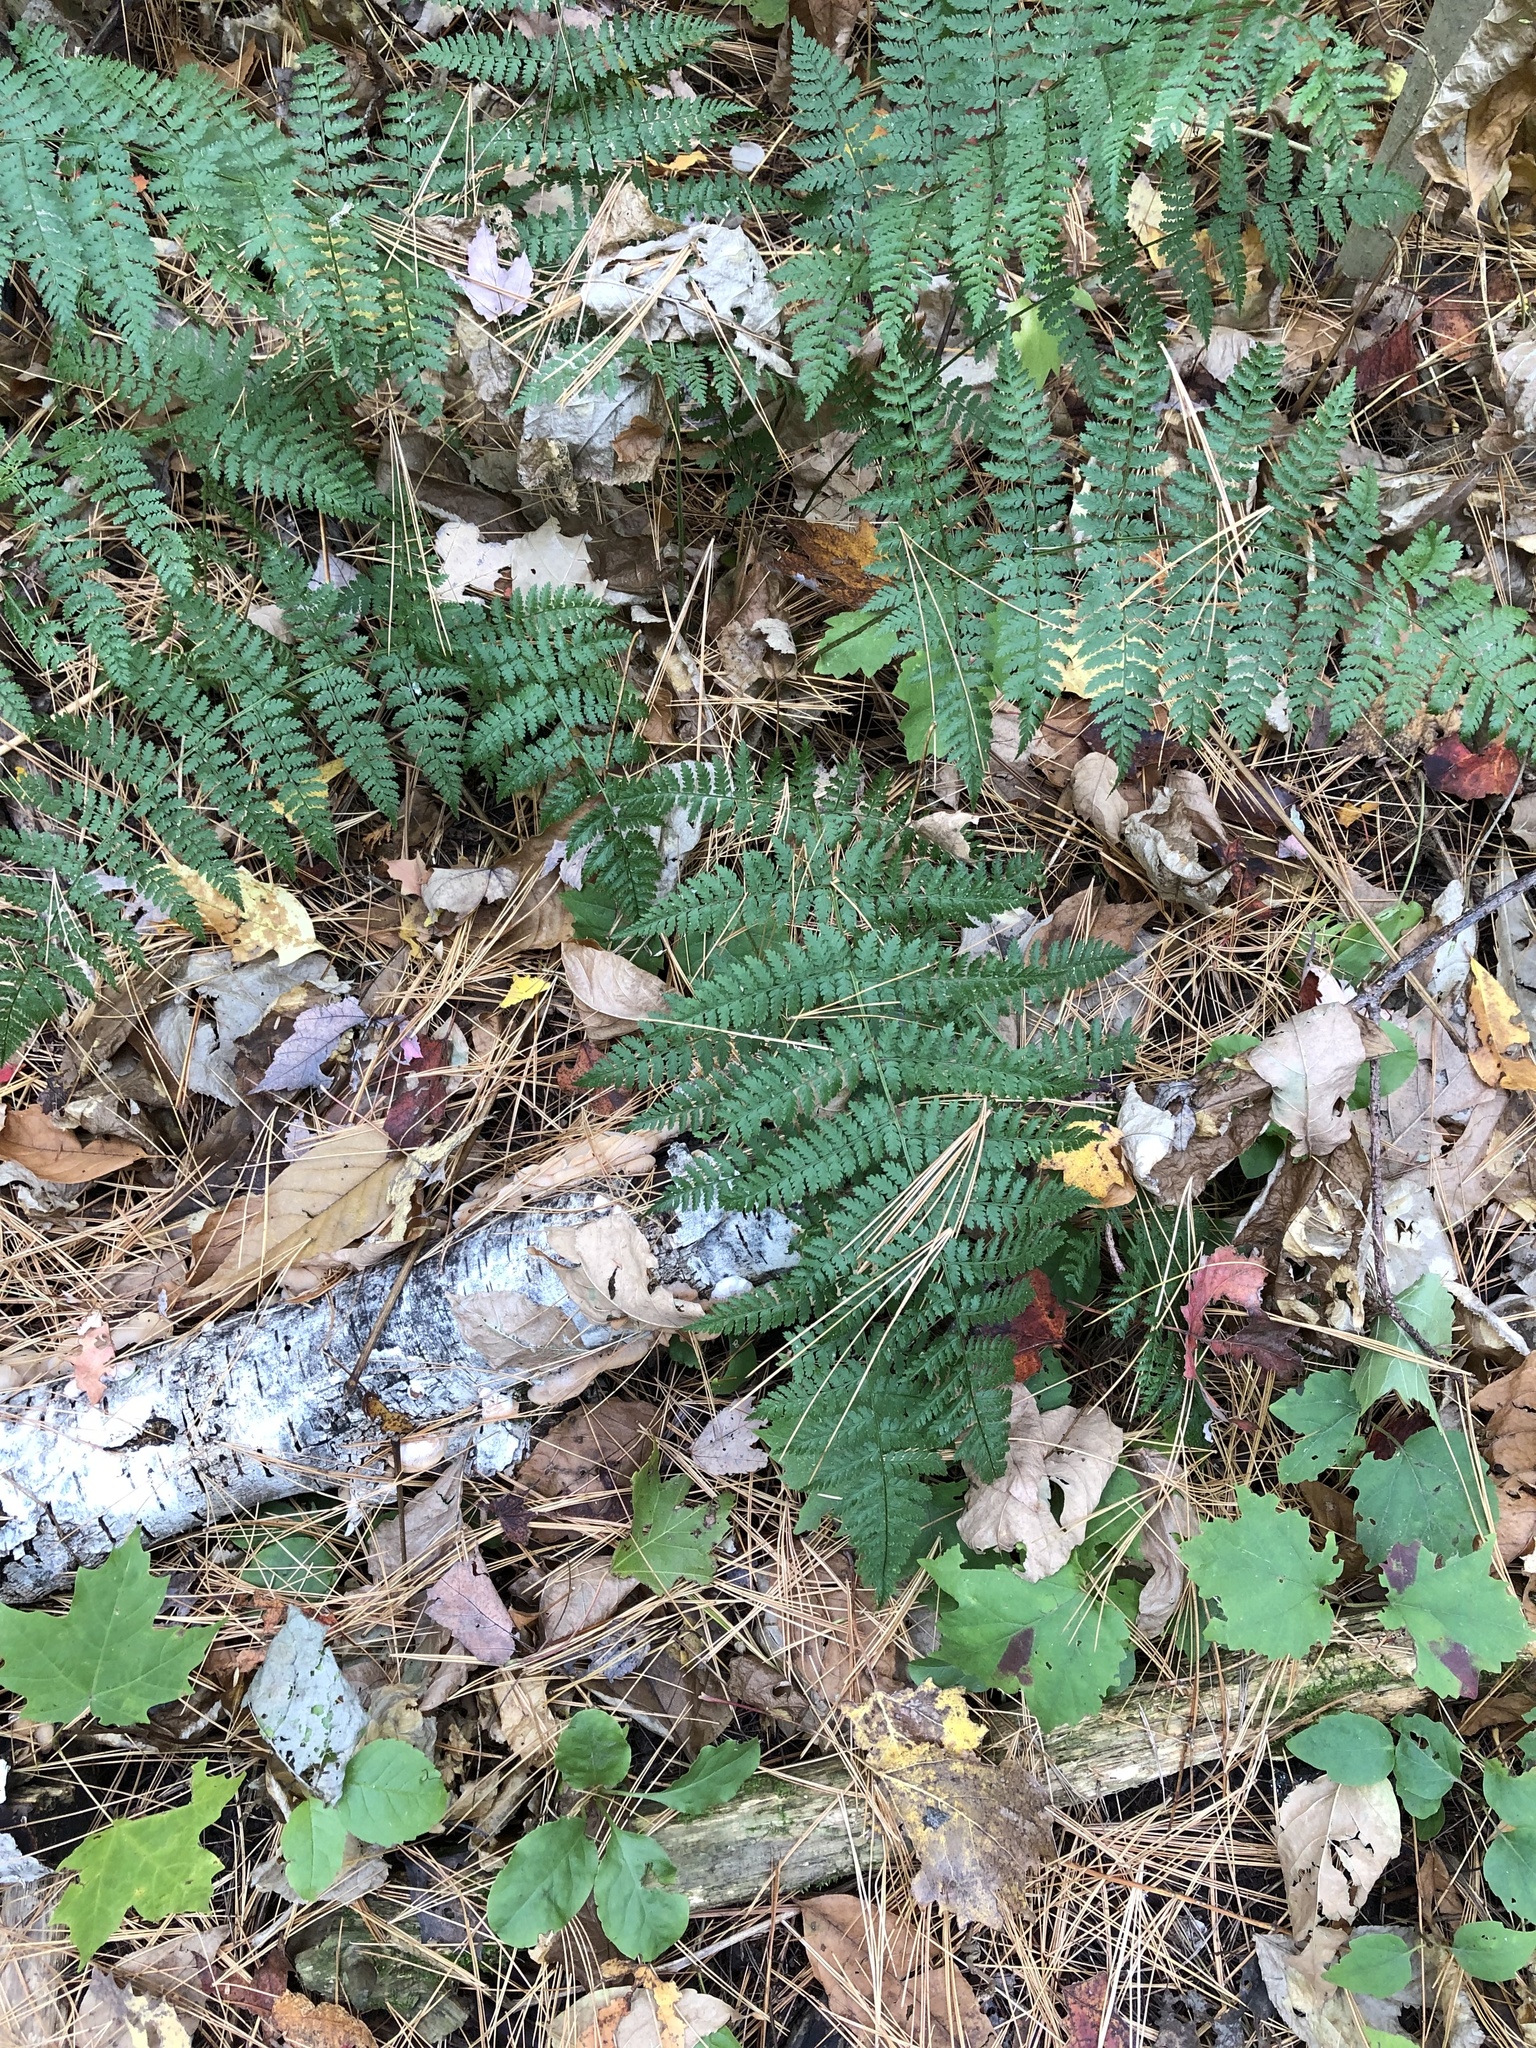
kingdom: Plantae
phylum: Tracheophyta
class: Polypodiopsida
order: Polypodiales
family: Dryopteridaceae
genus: Dryopteris
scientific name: Dryopteris intermedia
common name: Evergreen wood fern
